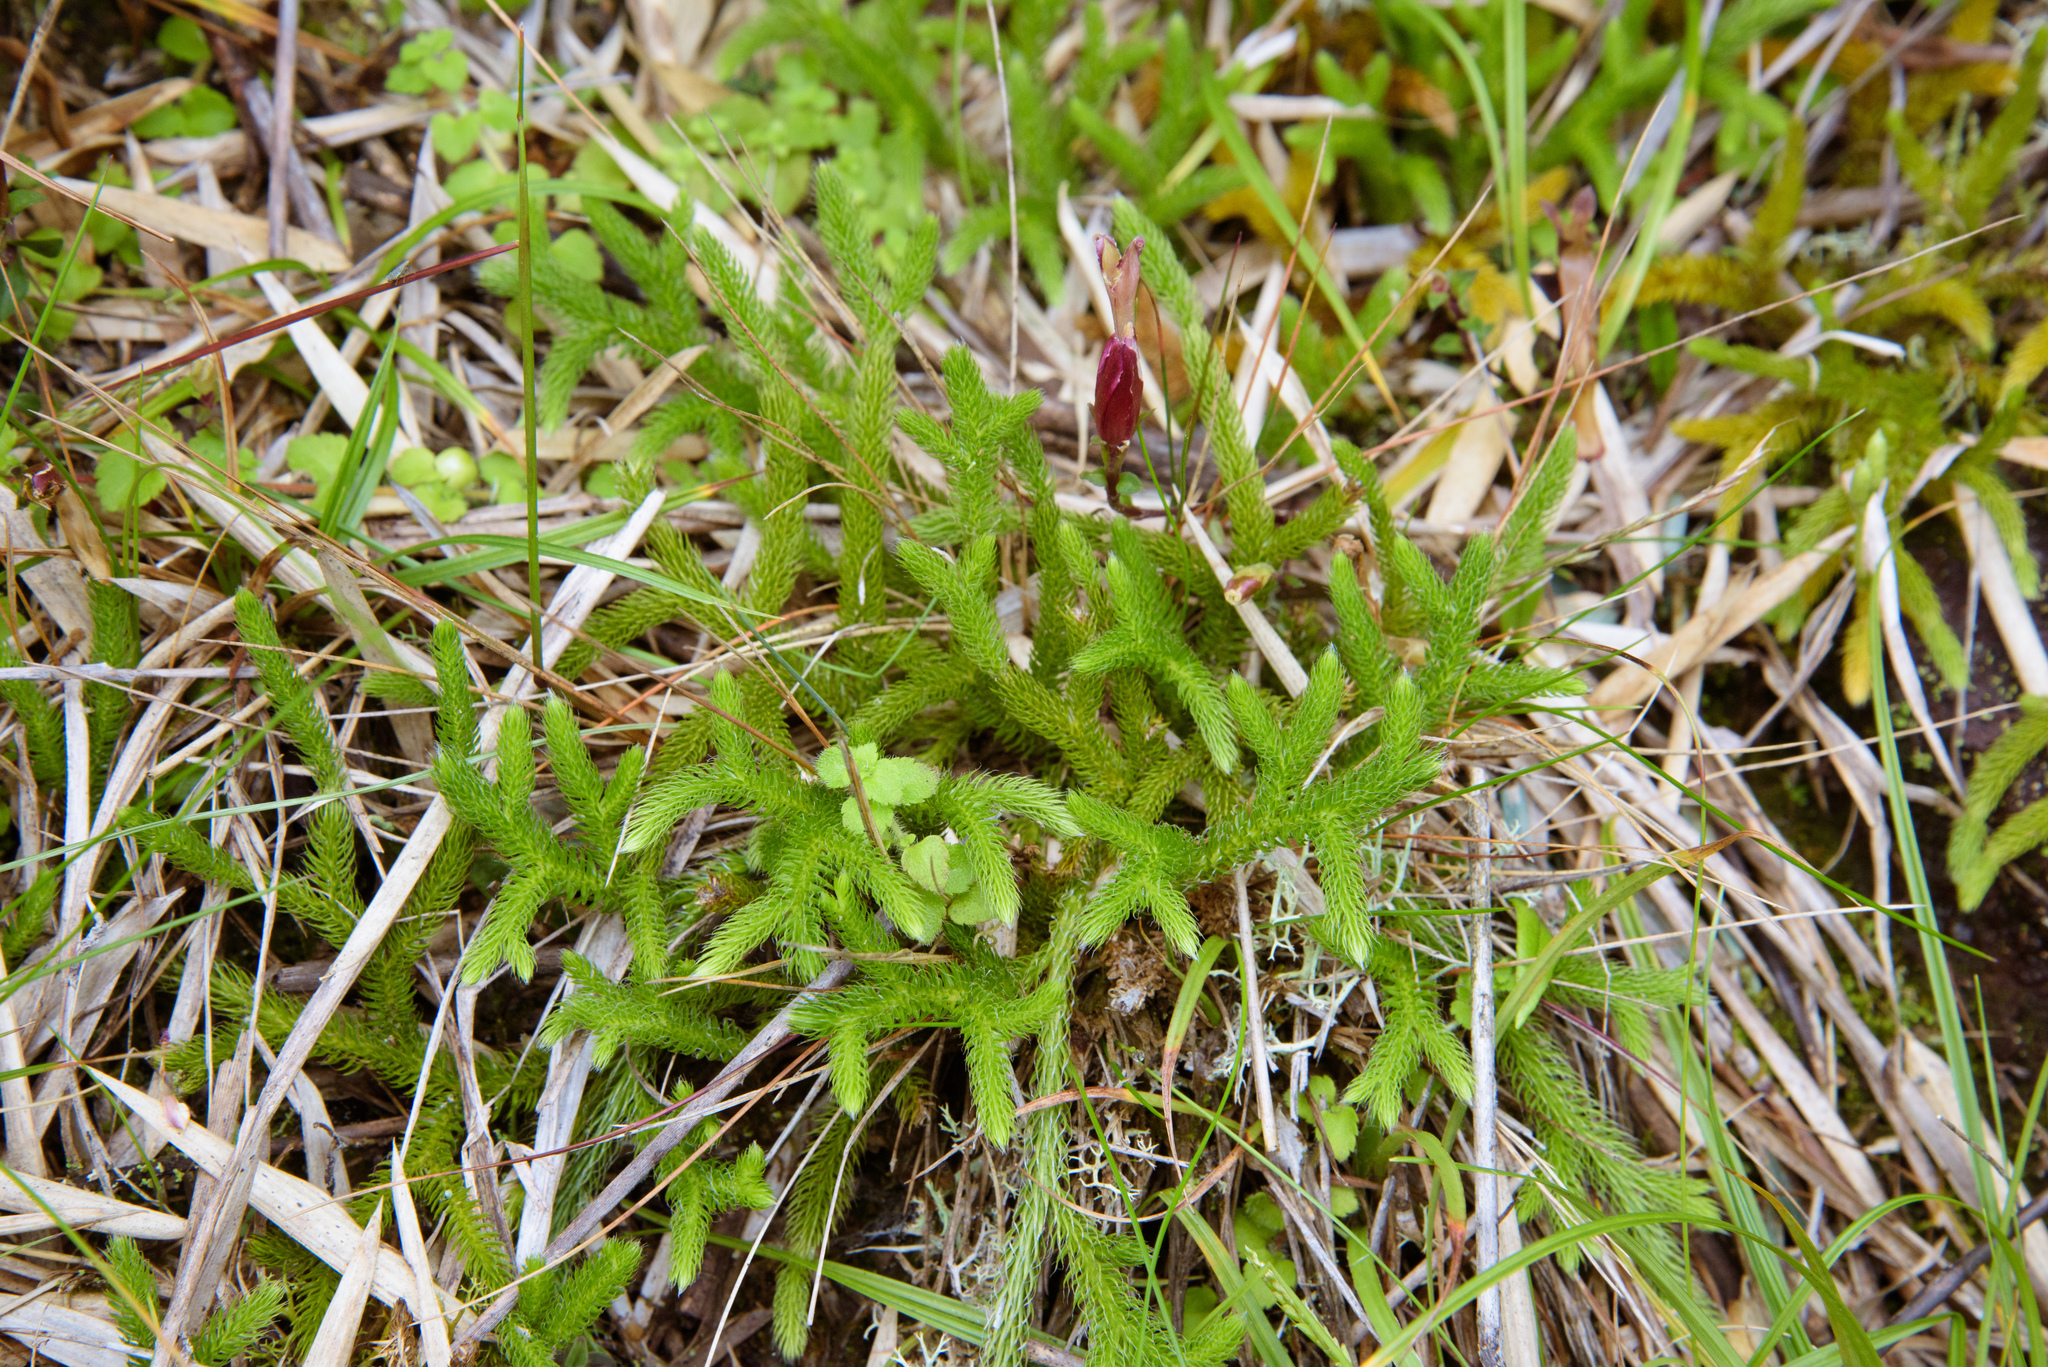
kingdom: Plantae
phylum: Tracheophyta
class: Lycopodiopsida
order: Lycopodiales
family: Lycopodiaceae
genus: Lycopodium
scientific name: Lycopodium clavatum
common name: Stag's-horn clubmoss
